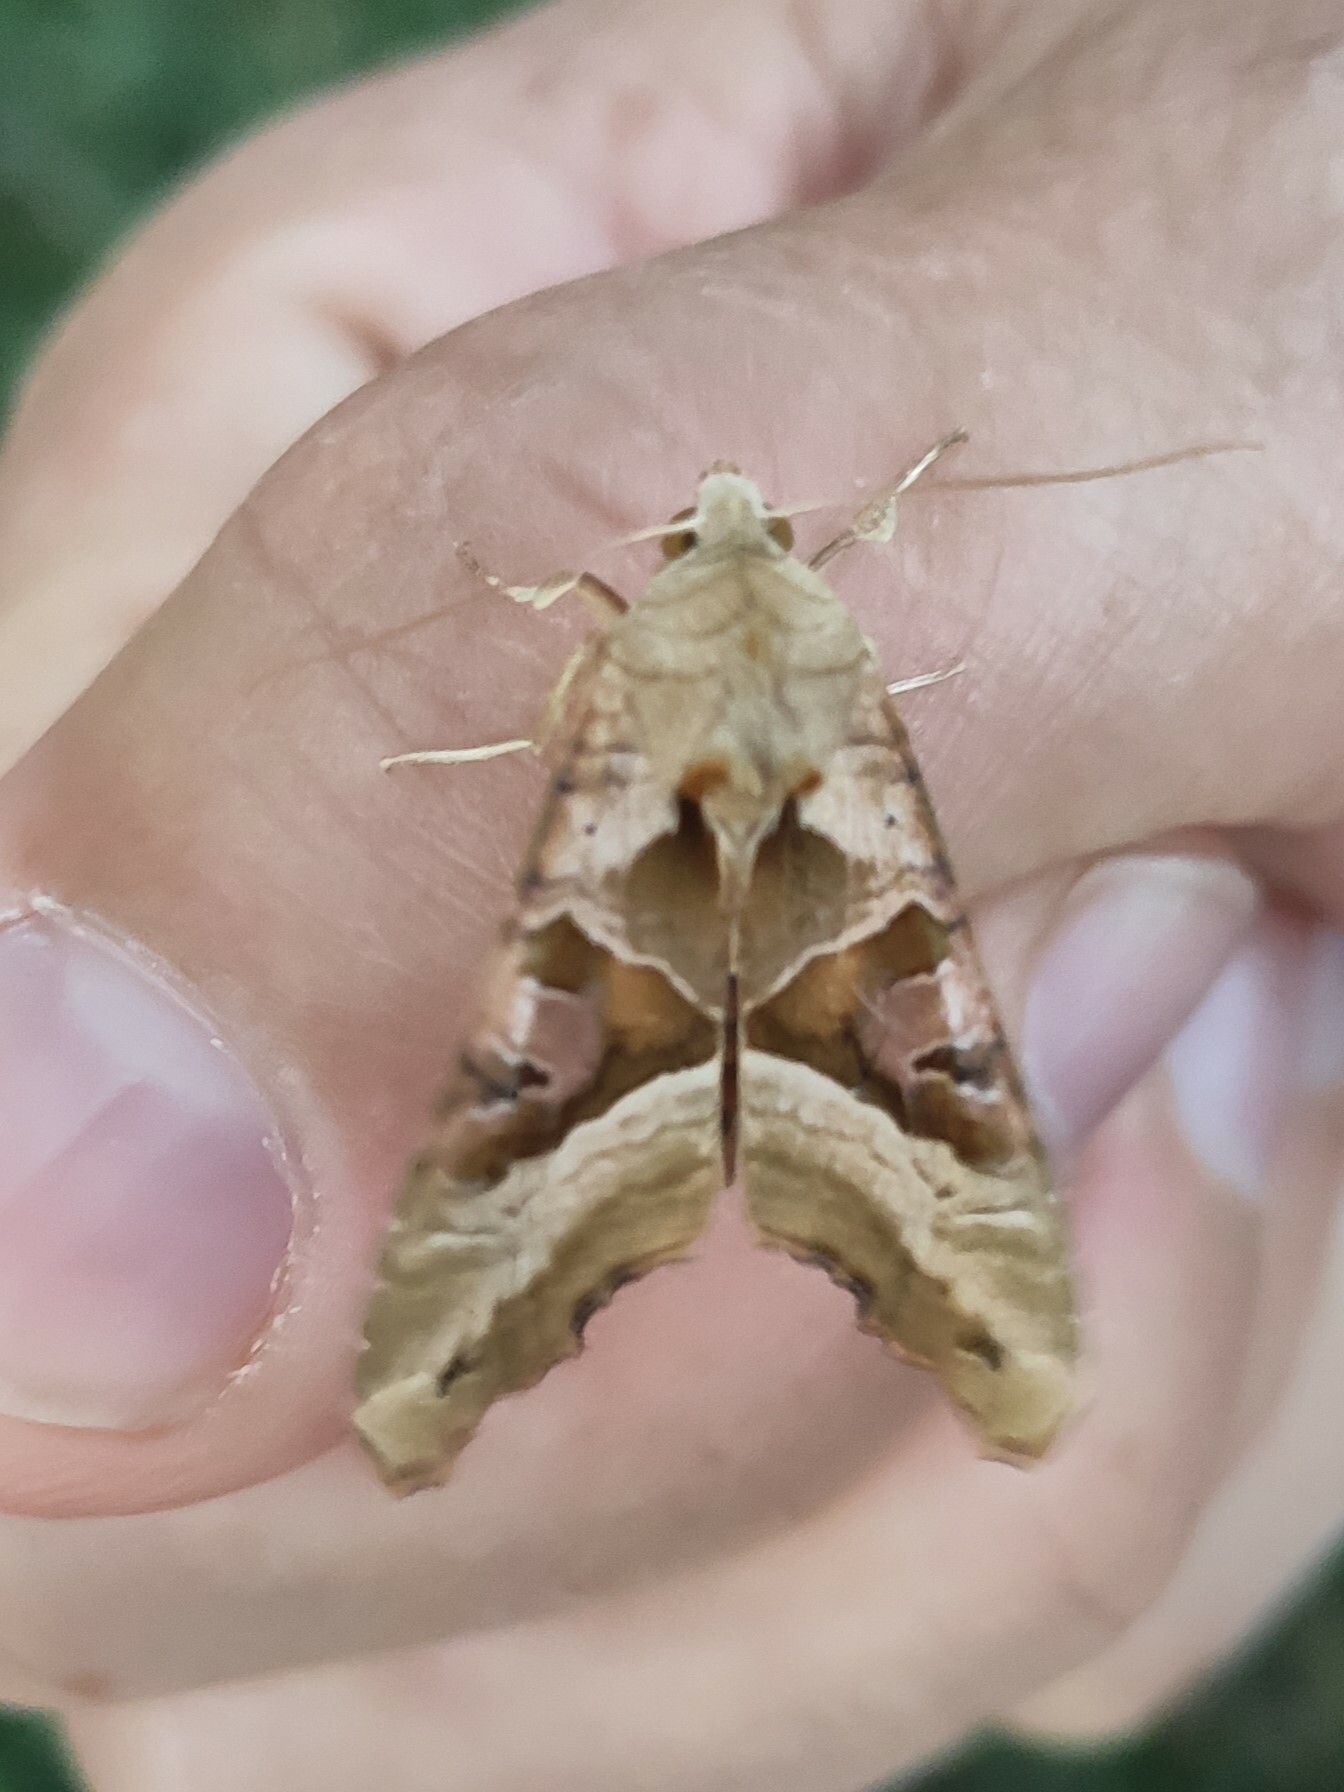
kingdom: Animalia
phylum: Arthropoda
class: Insecta
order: Lepidoptera
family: Noctuidae
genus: Phlogophora
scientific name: Phlogophora meticulosa
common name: Angle shades
